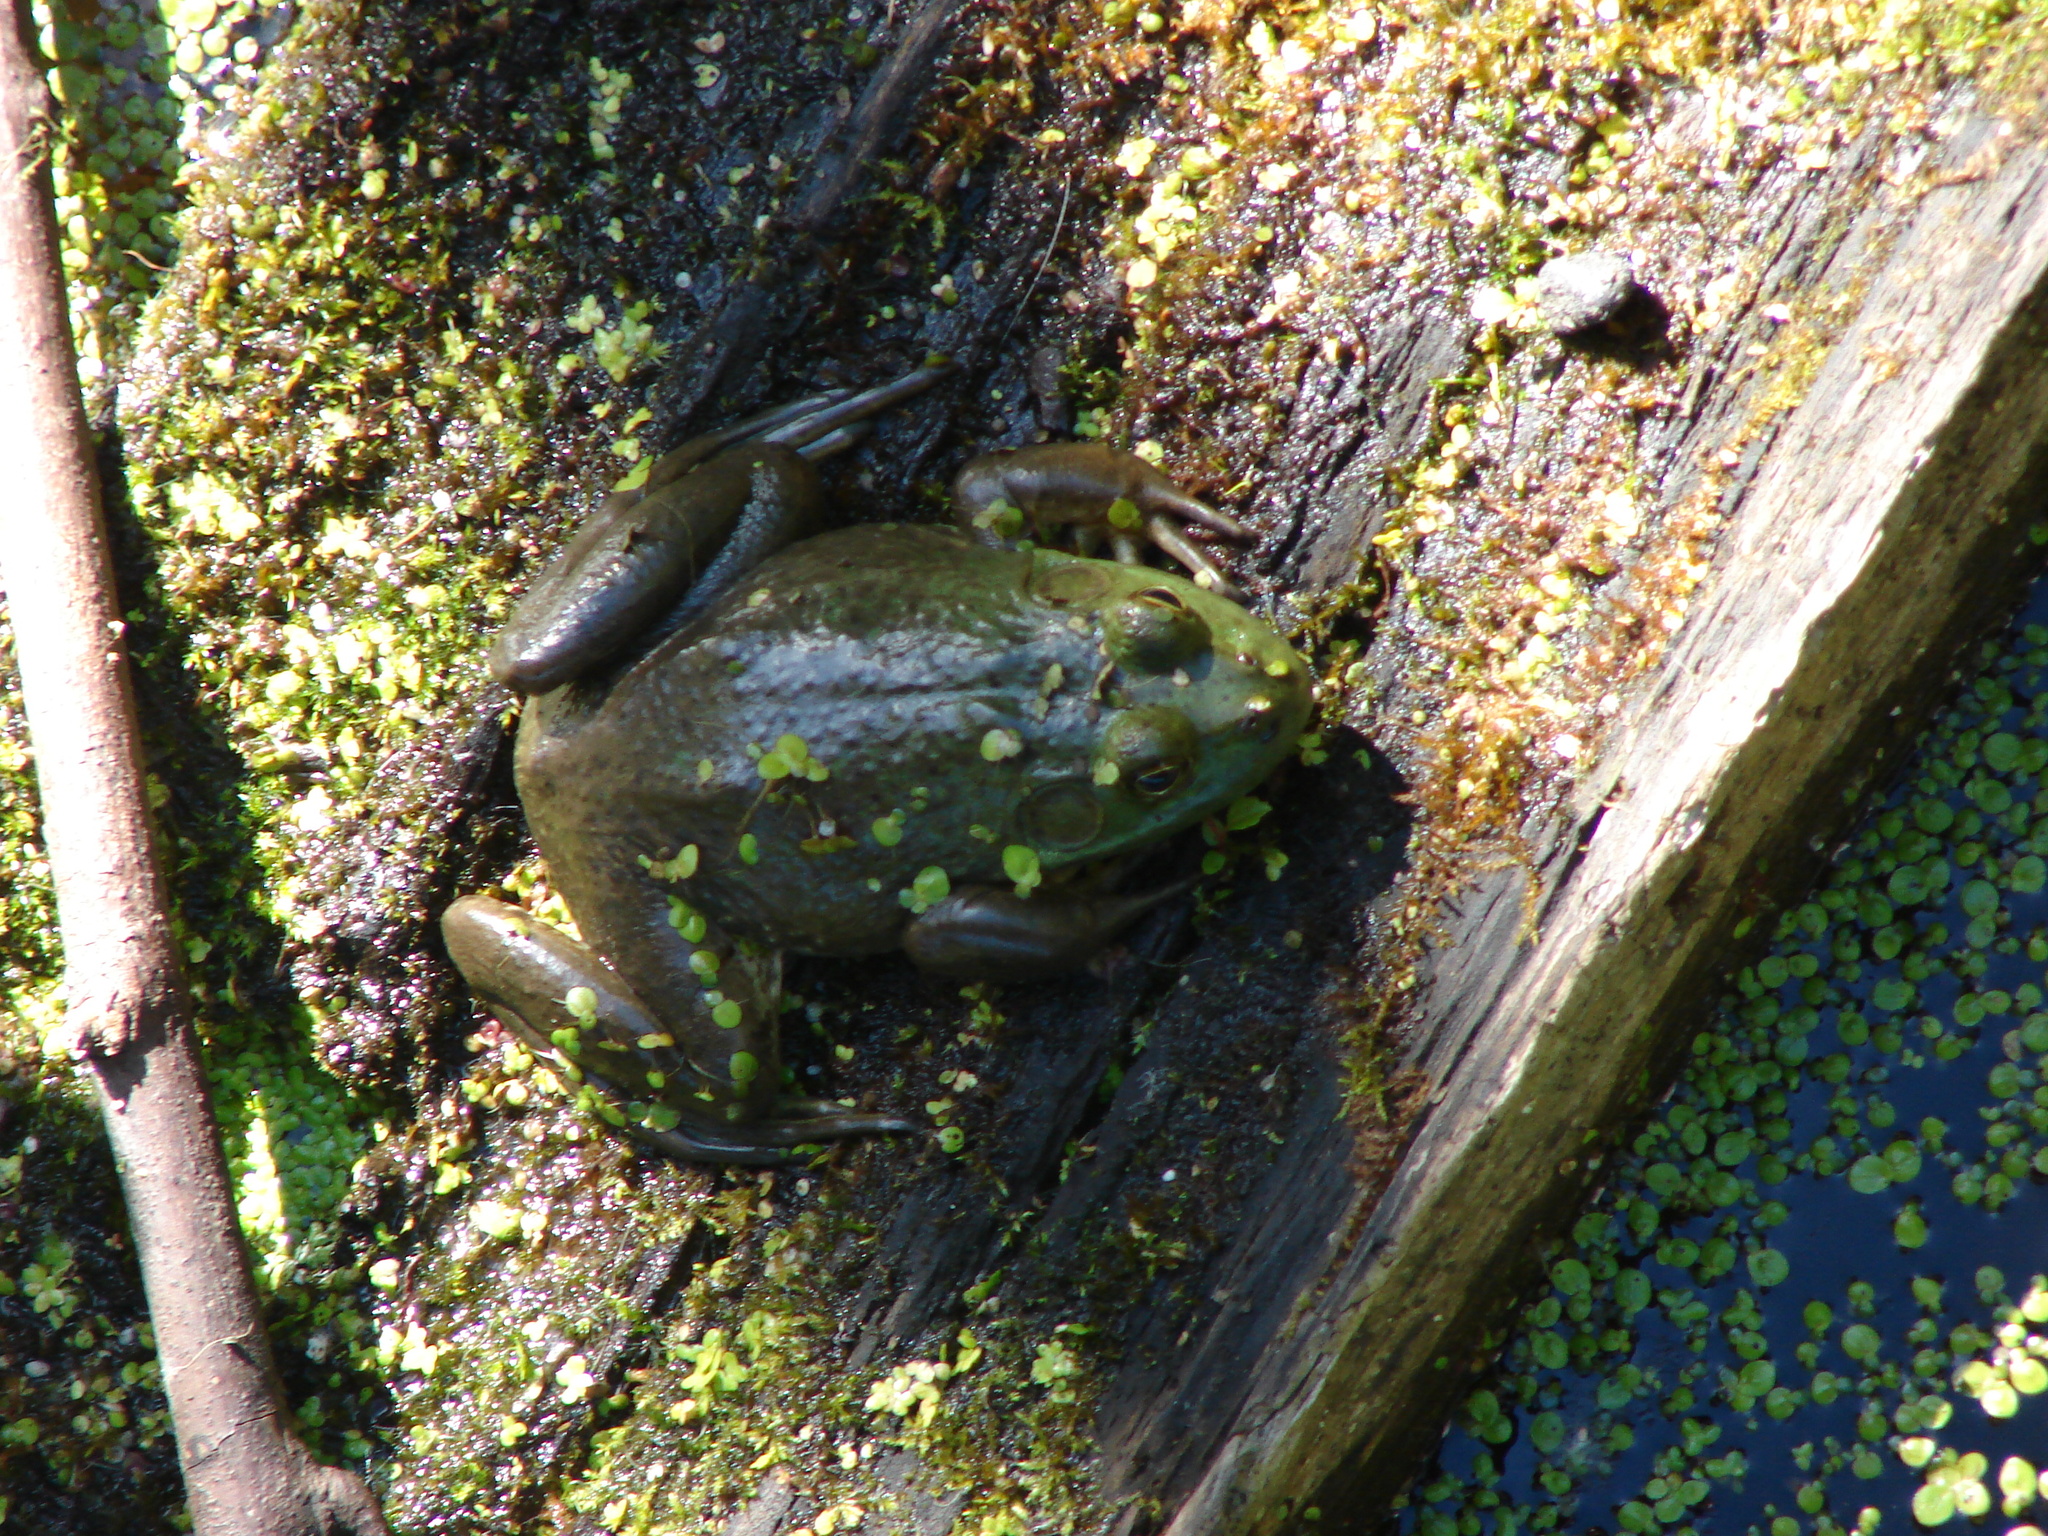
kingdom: Animalia
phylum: Chordata
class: Amphibia
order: Anura
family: Ranidae
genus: Lithobates
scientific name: Lithobates catesbeianus
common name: American bullfrog
